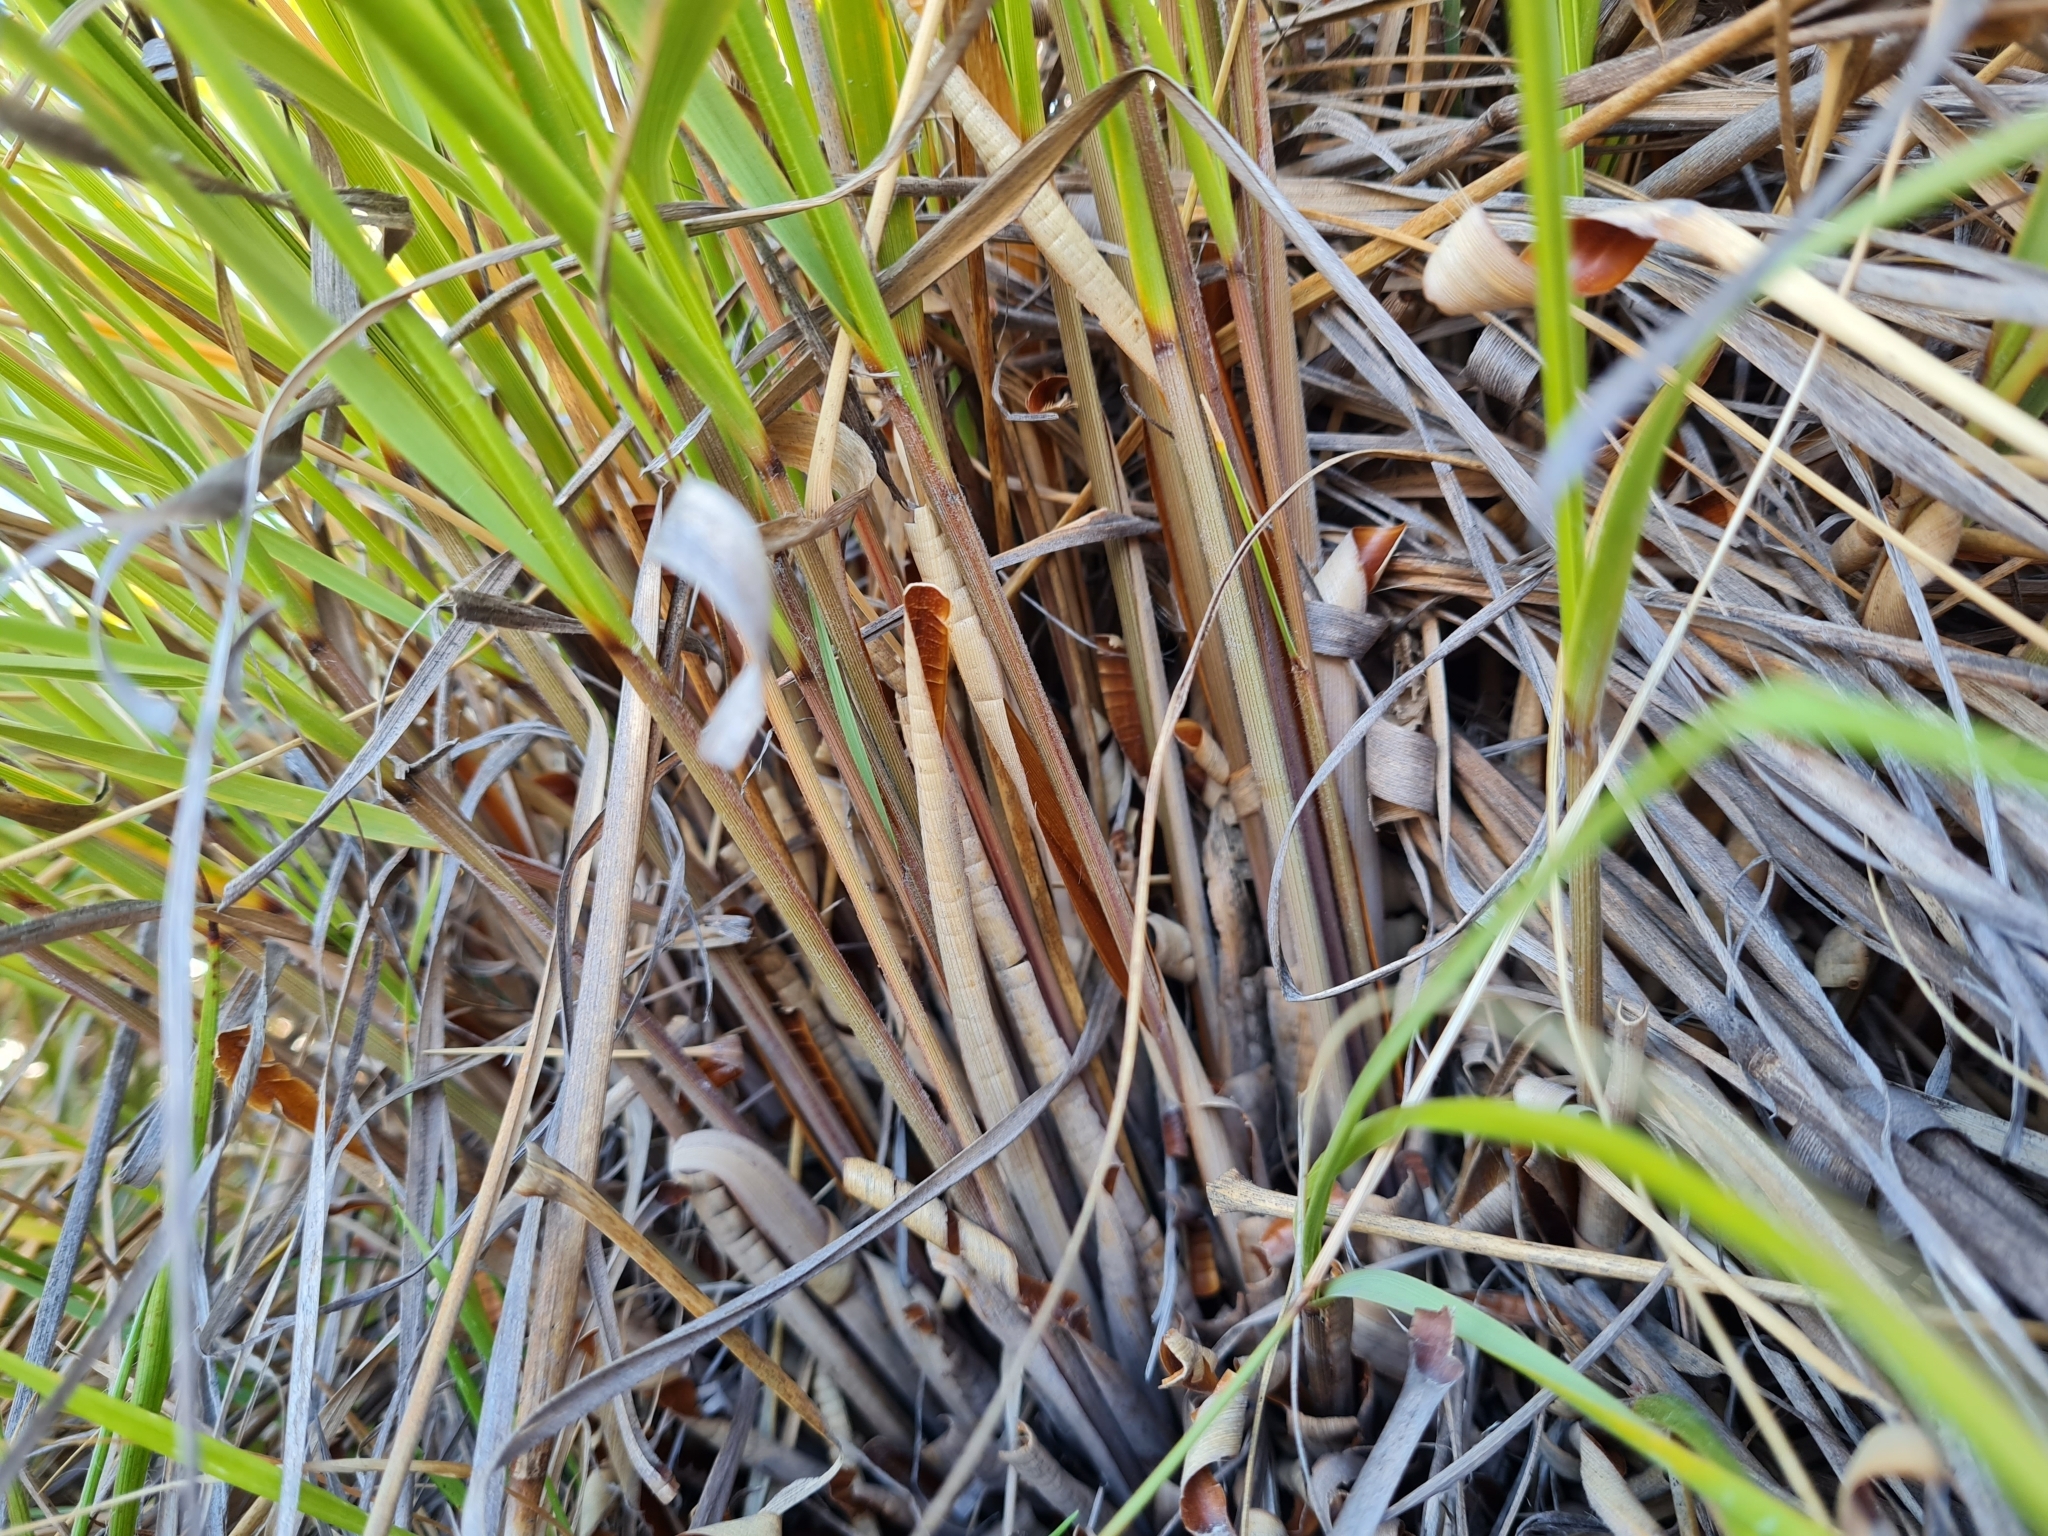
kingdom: Plantae
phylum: Tracheophyta
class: Liliopsida
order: Poales
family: Poaceae
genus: Chionochloa
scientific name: Chionochloa rigida
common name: Narrow leaved snow tussock
